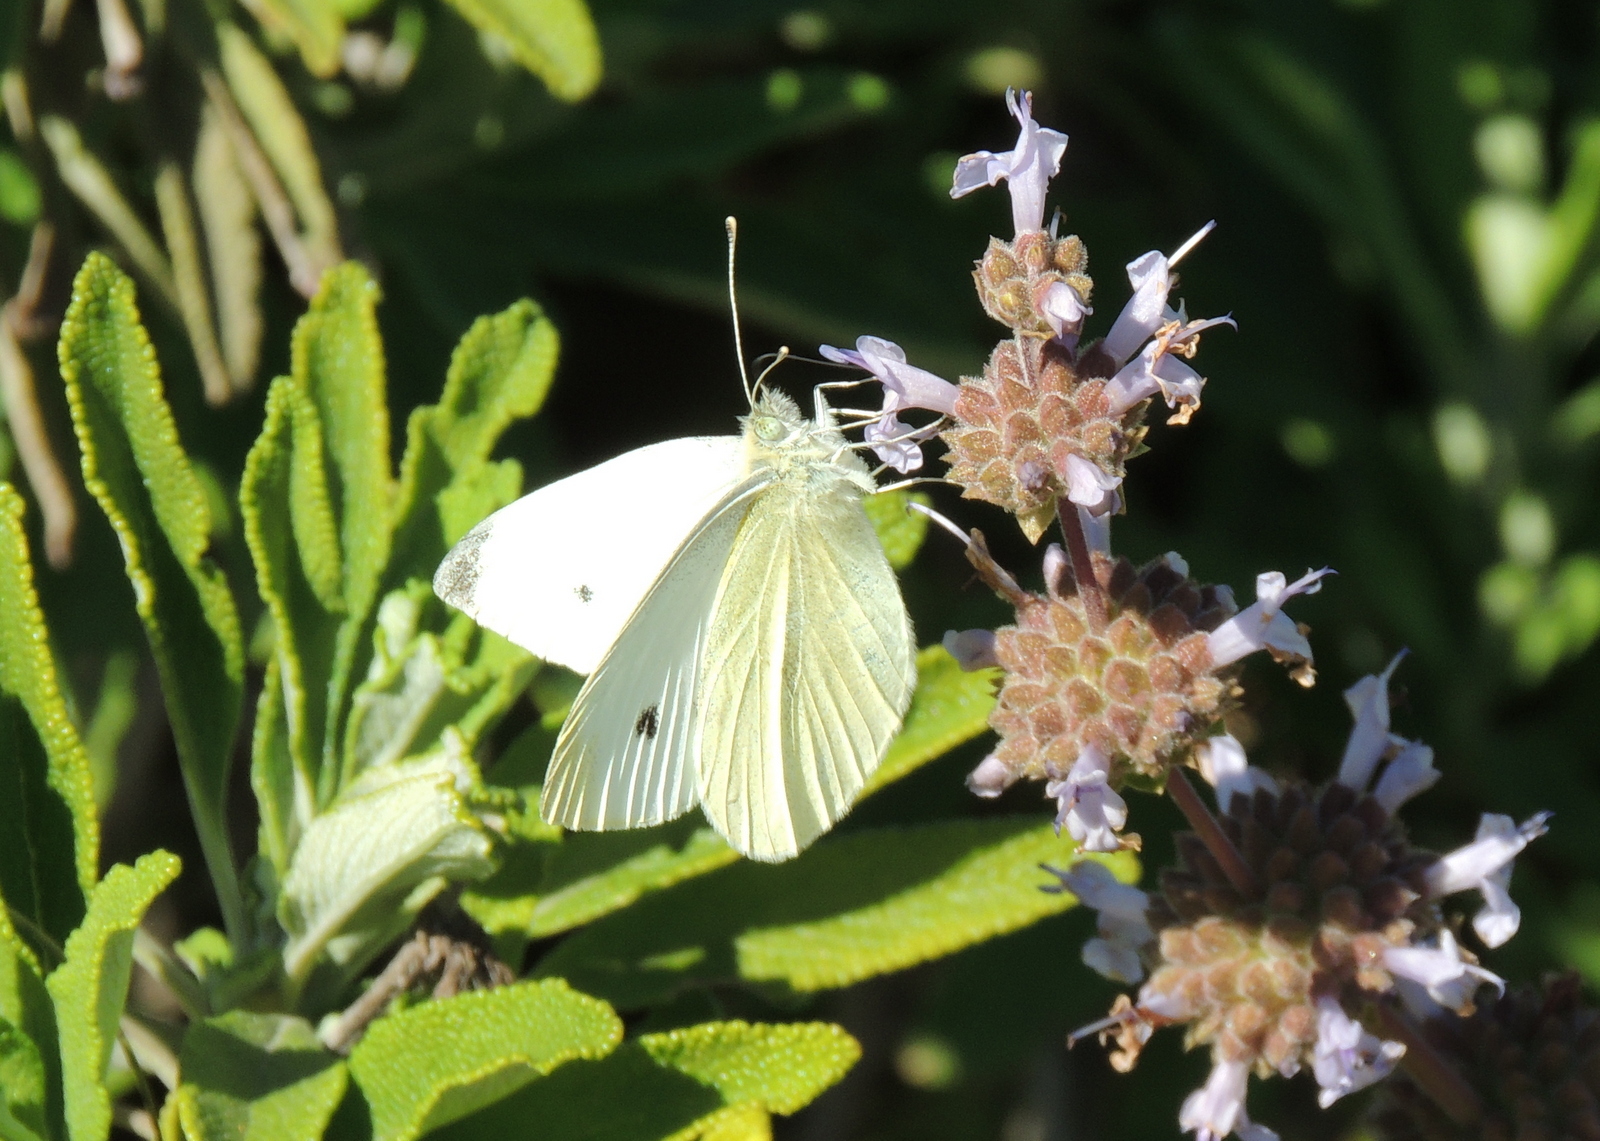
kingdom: Animalia
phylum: Arthropoda
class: Insecta
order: Lepidoptera
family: Pieridae
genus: Pieris
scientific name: Pieris rapae
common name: Small white
